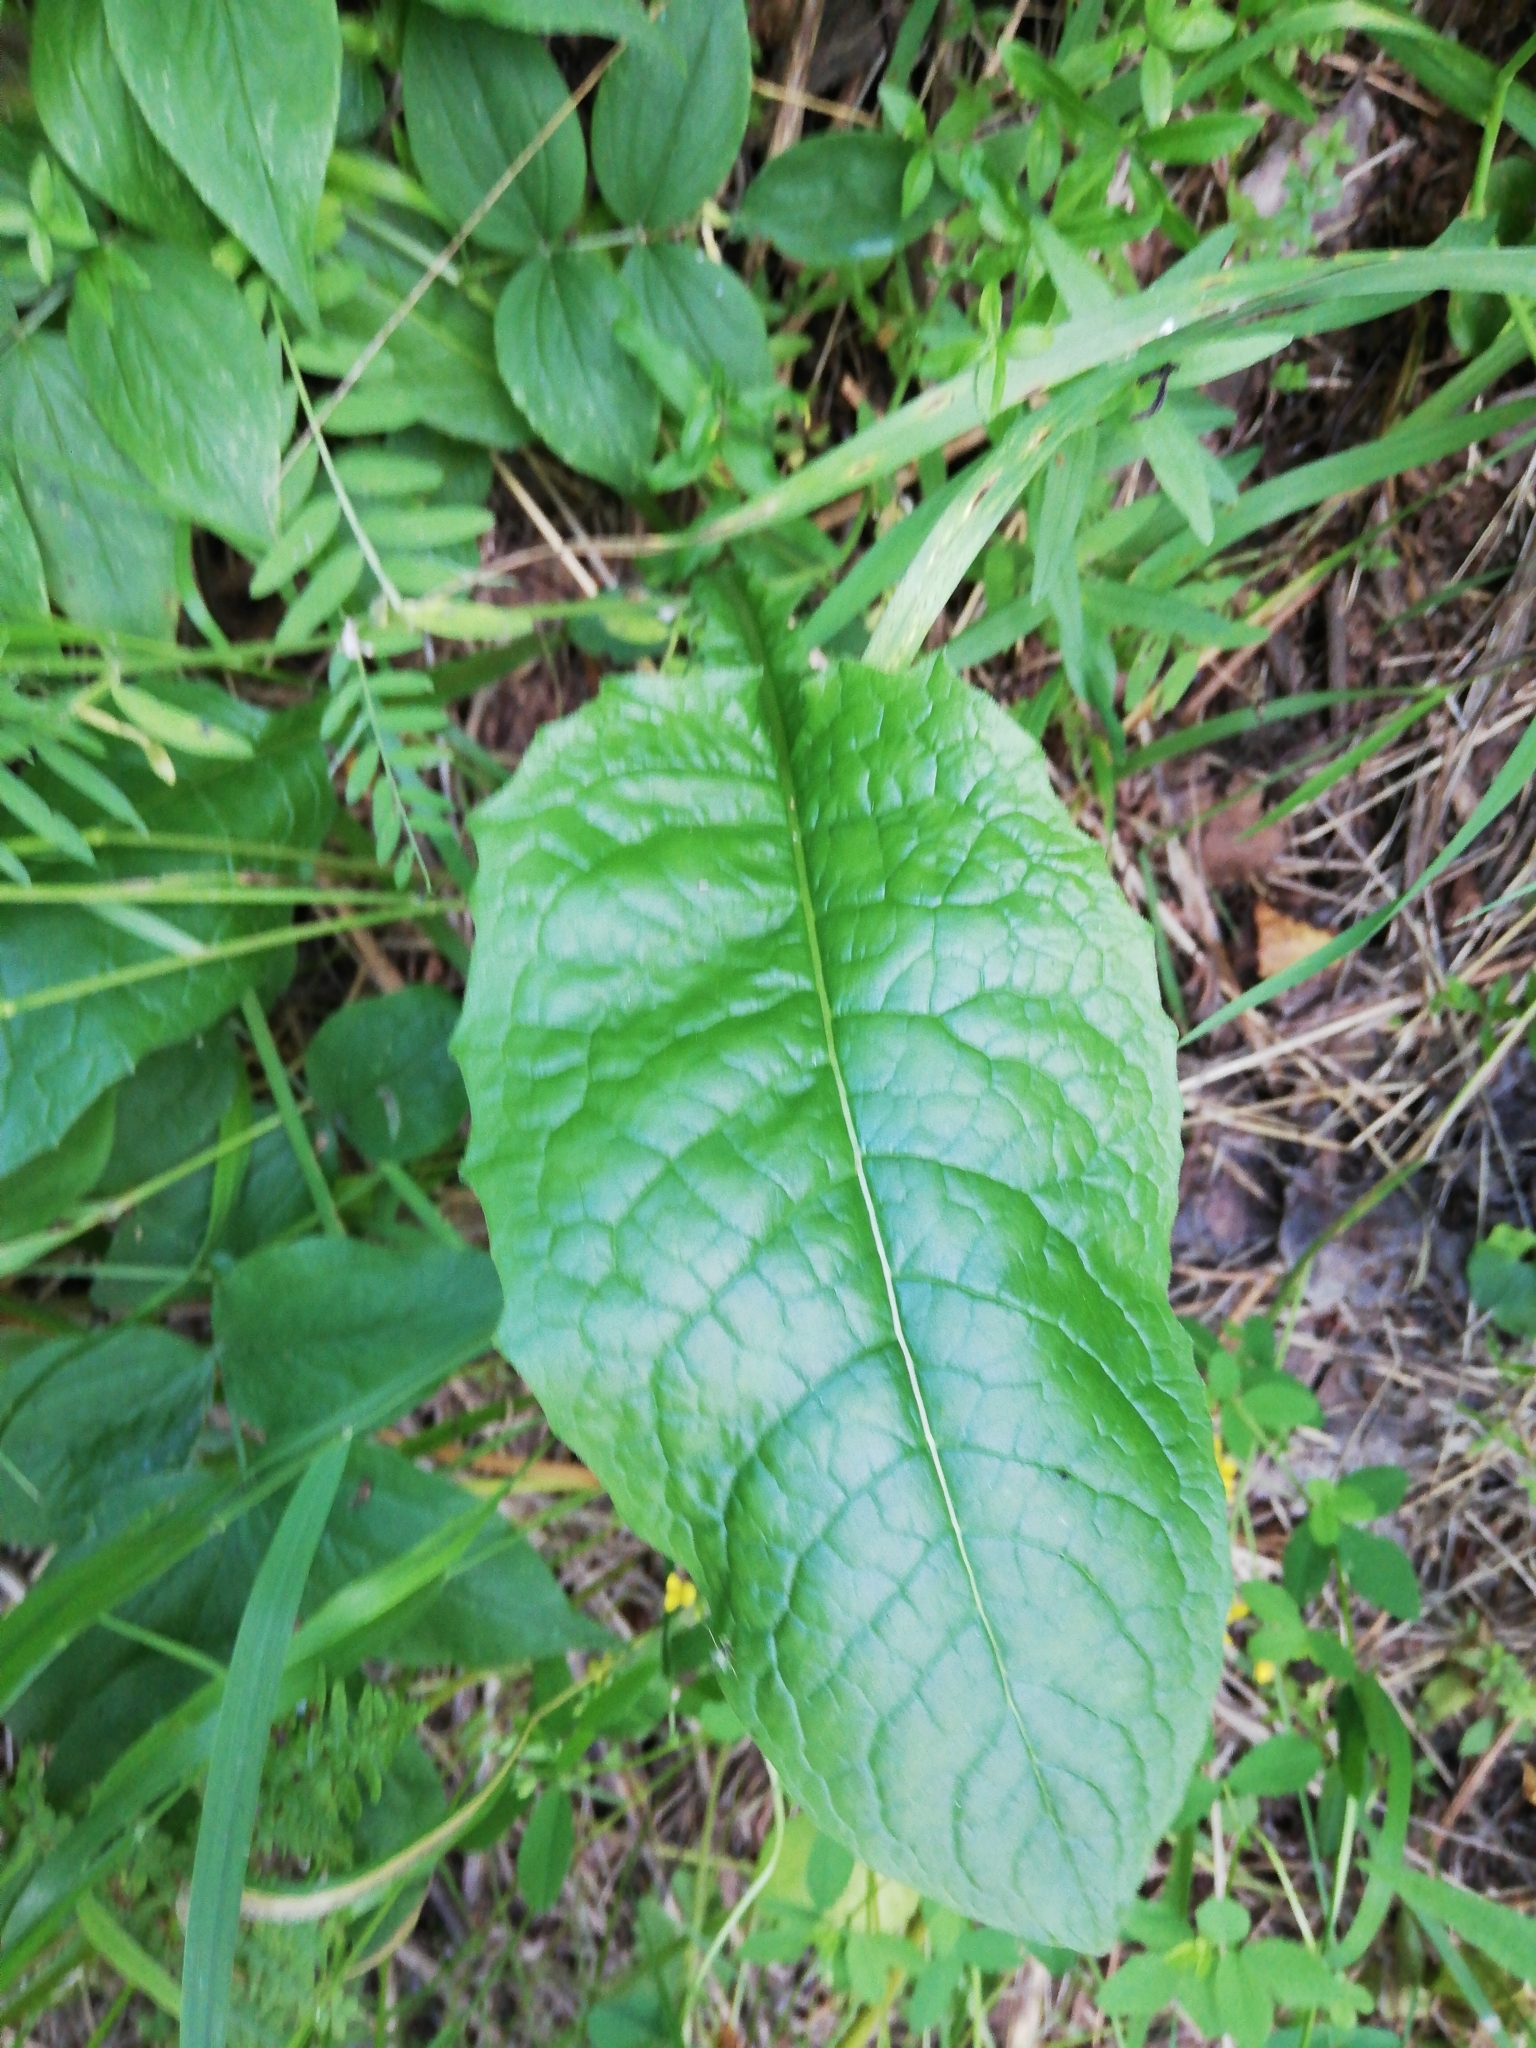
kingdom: Plantae
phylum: Tracheophyta
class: Magnoliopsida
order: Asterales
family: Asteraceae
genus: Crepis
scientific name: Crepis sibirica
